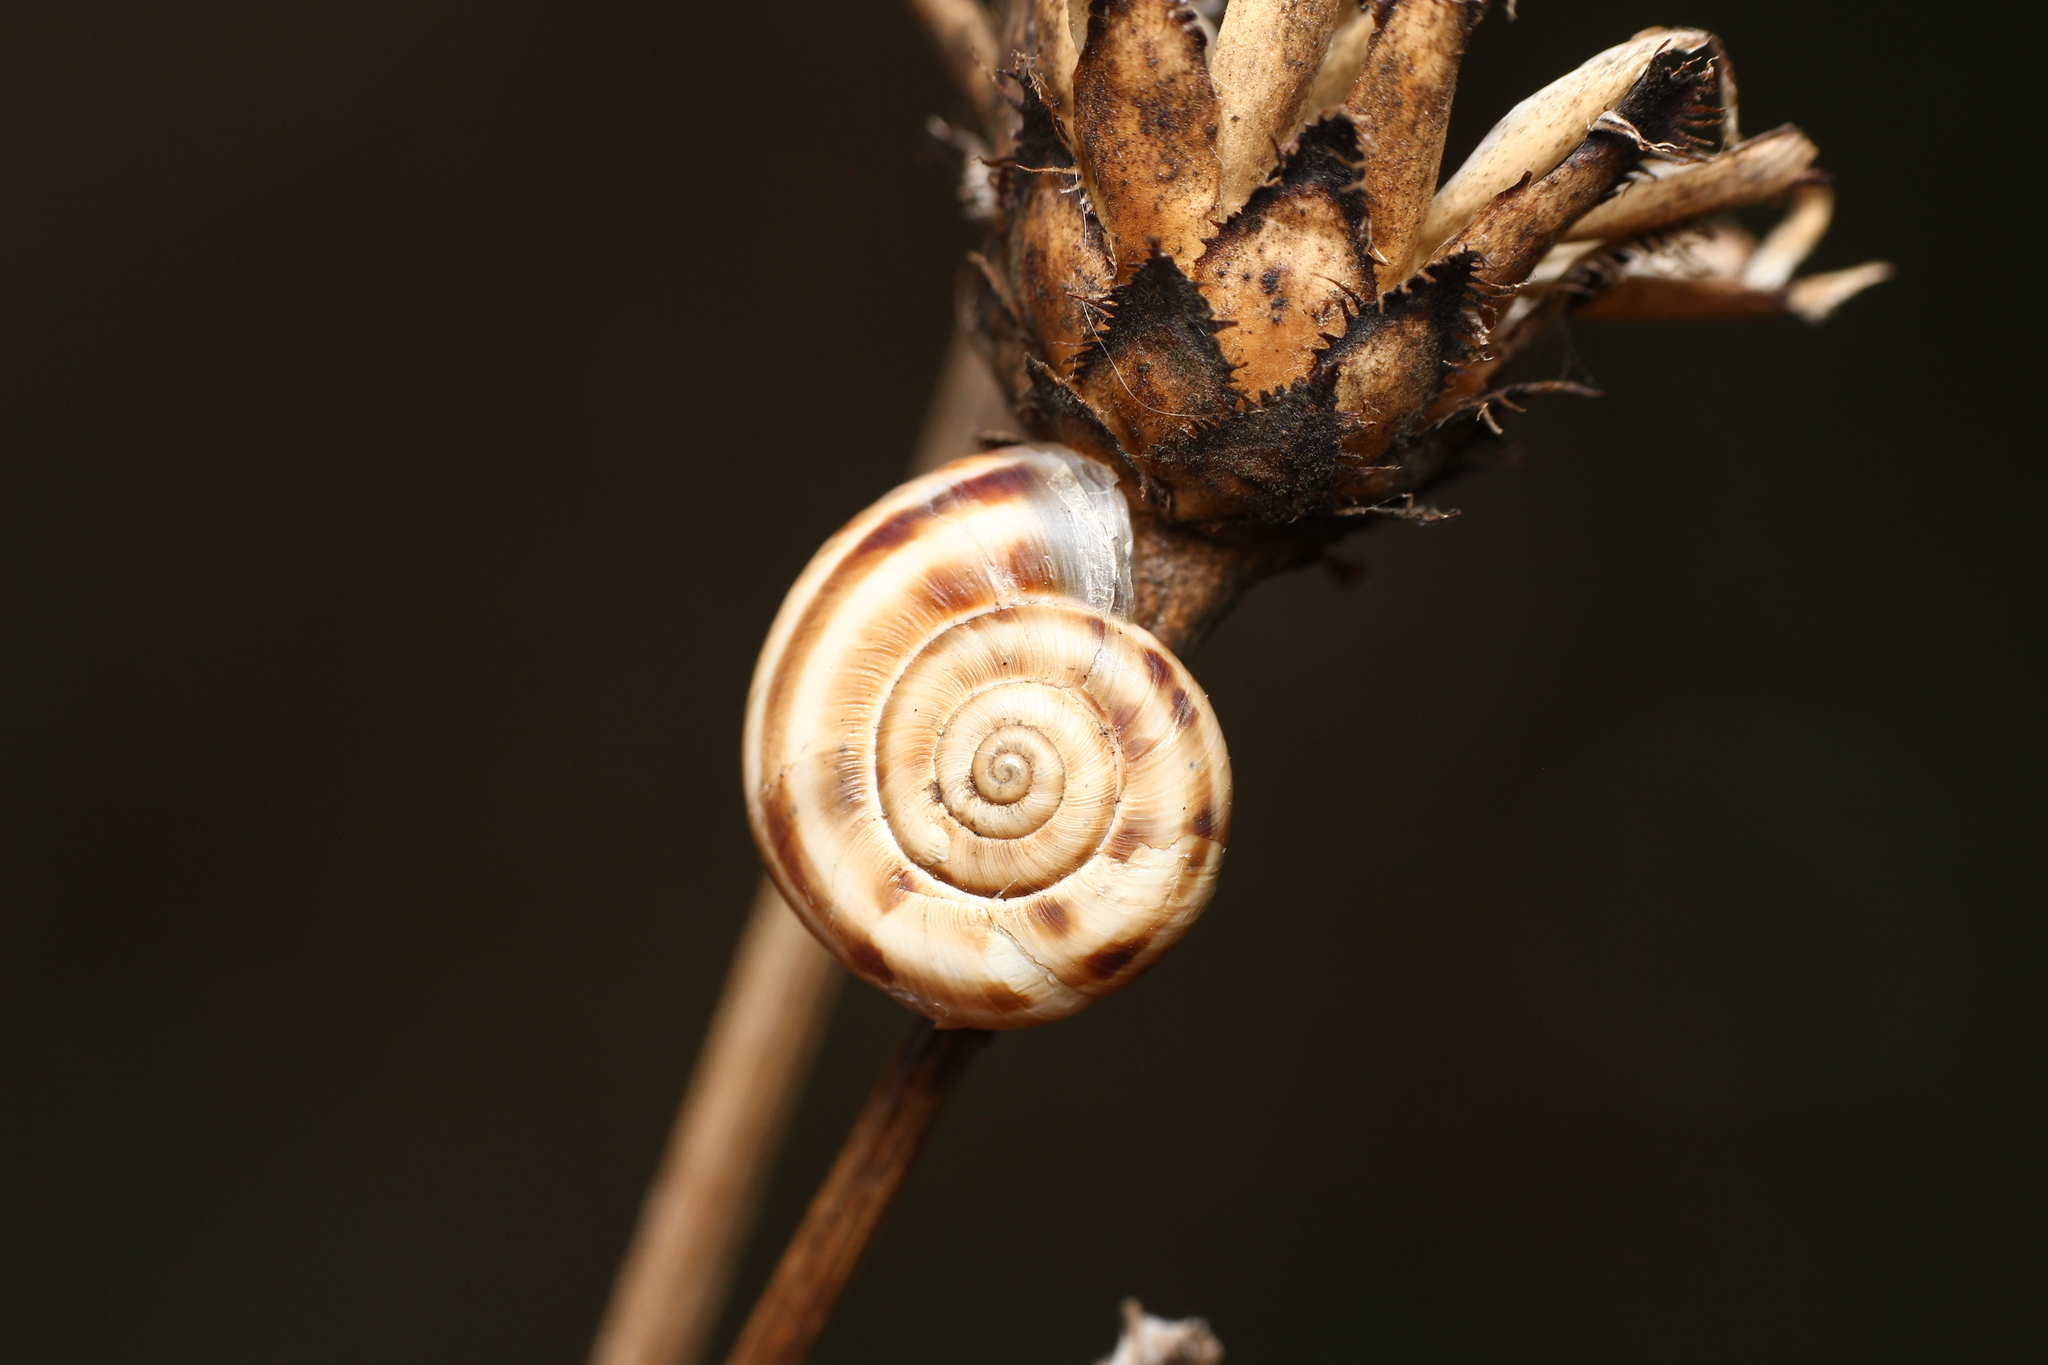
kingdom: Animalia
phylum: Mollusca
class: Gastropoda
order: Stylommatophora
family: Geomitridae
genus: Xerolenta
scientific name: Xerolenta obvia
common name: White heath snail
